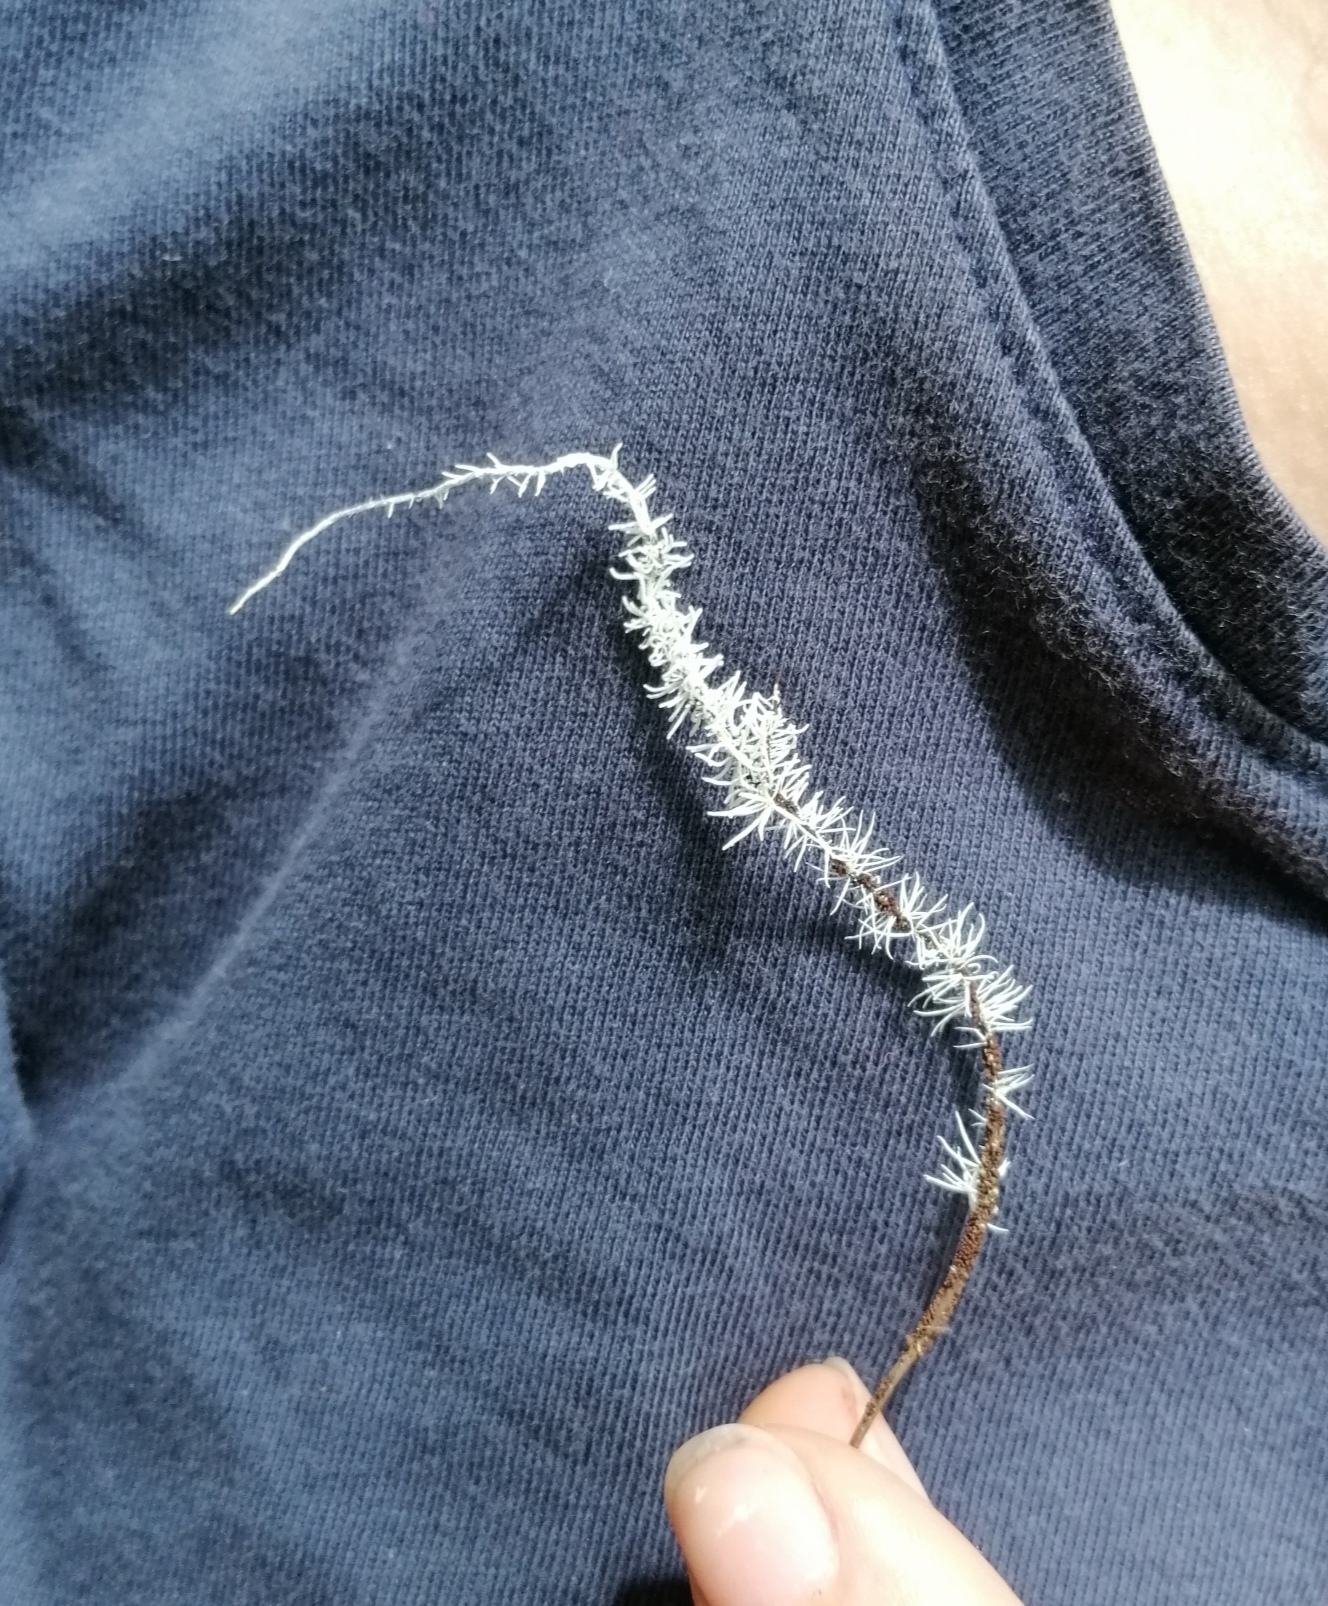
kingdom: Fungi
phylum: Ascomycota
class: Sordariomycetes
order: Hypocreales
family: Tilachlidiaceae
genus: Tilachlidium
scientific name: Tilachlidium brachiatum
